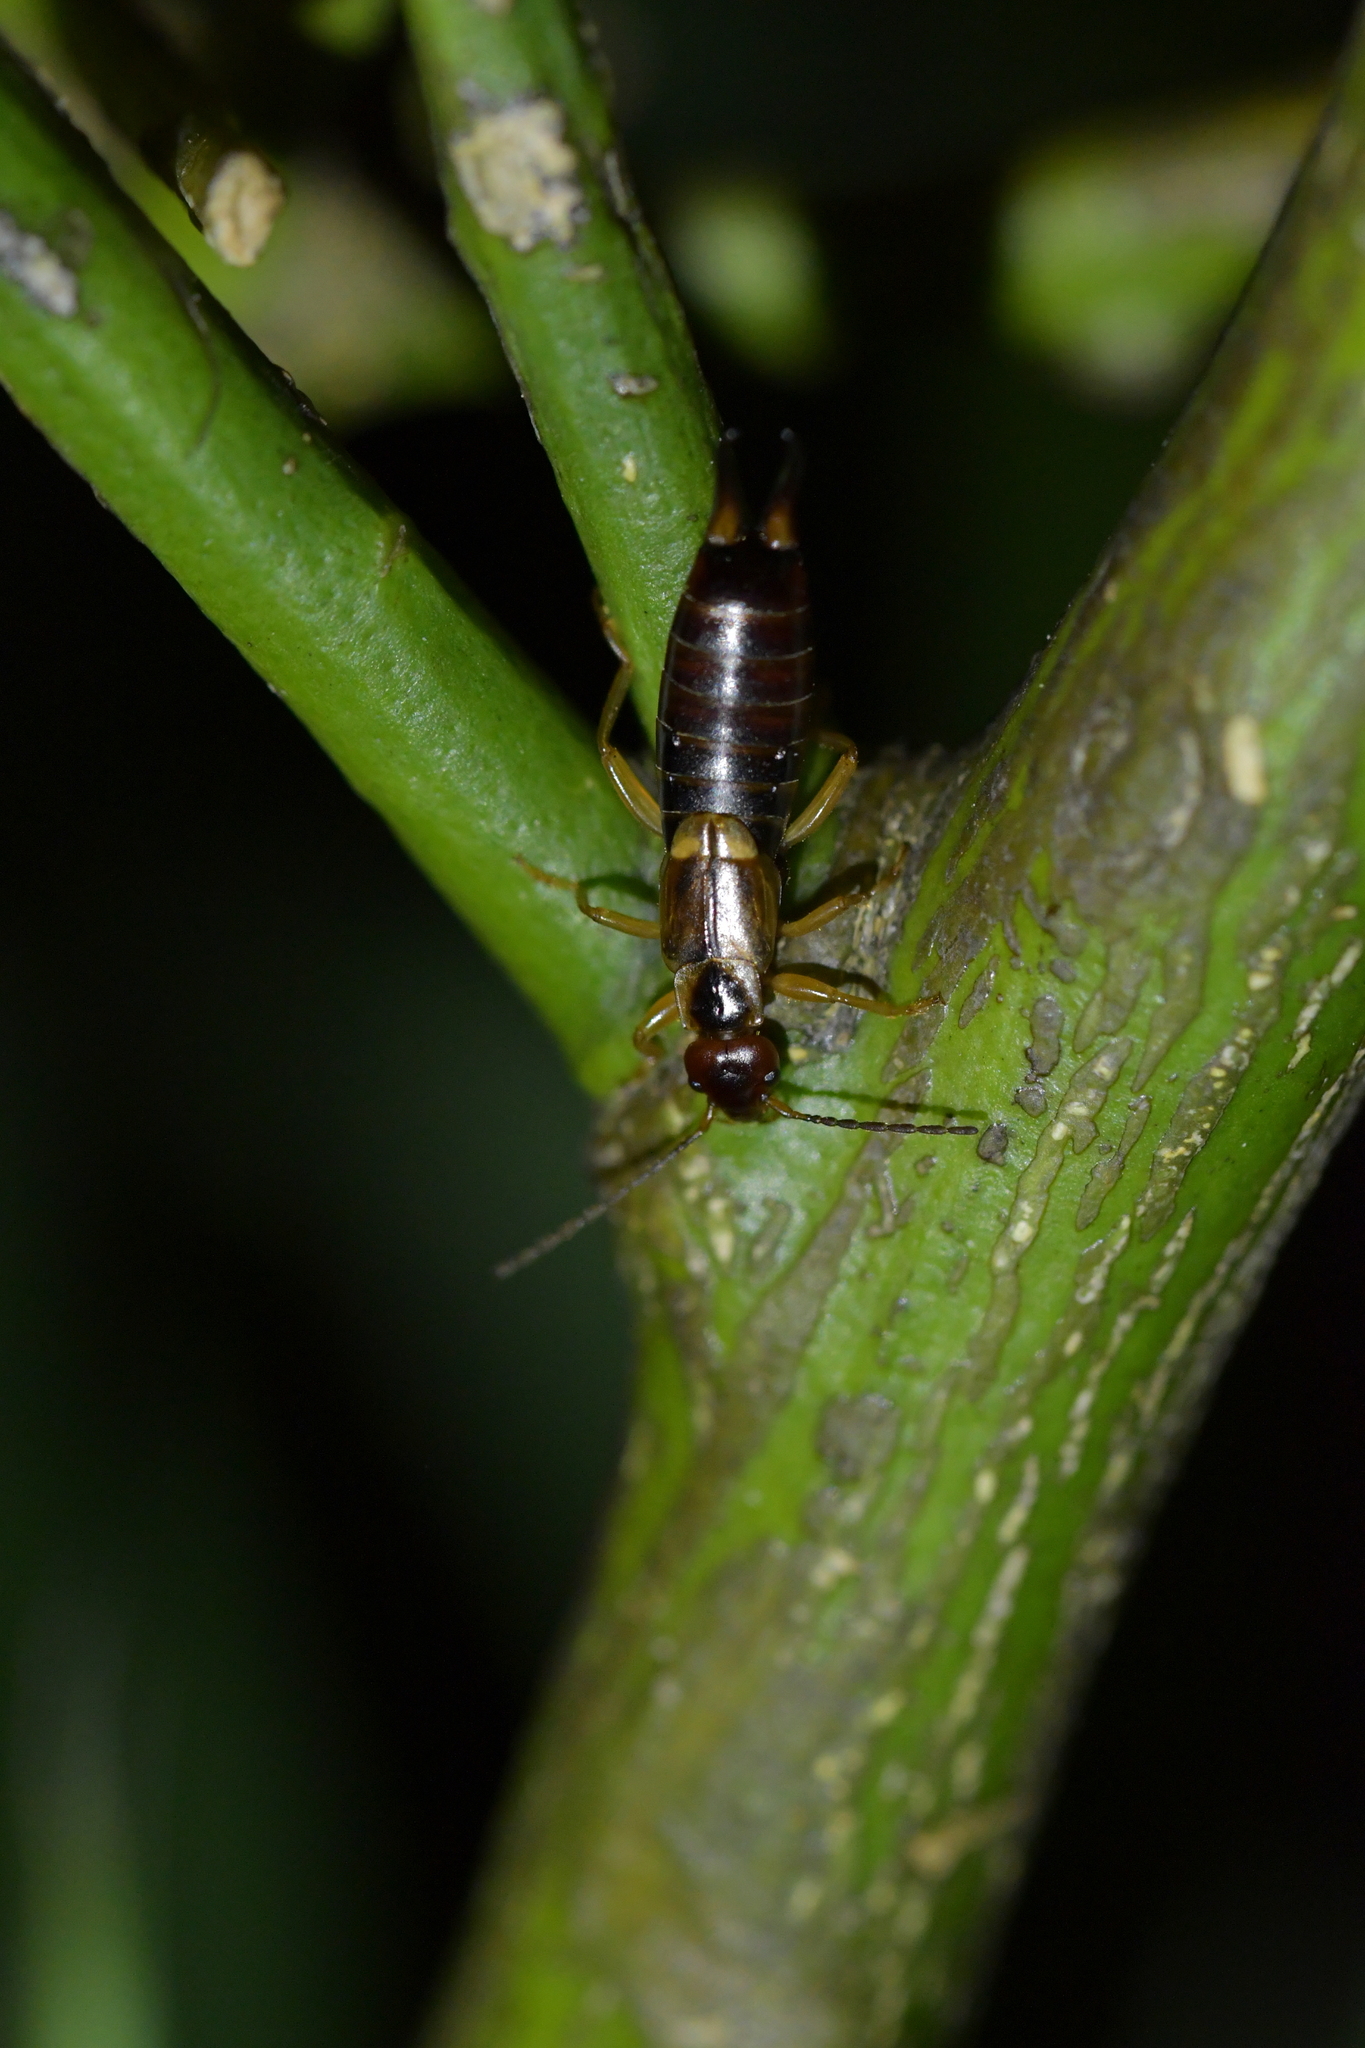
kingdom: Animalia
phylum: Arthropoda
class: Insecta
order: Dermaptera
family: Forficulidae
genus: Forficula
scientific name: Forficula
